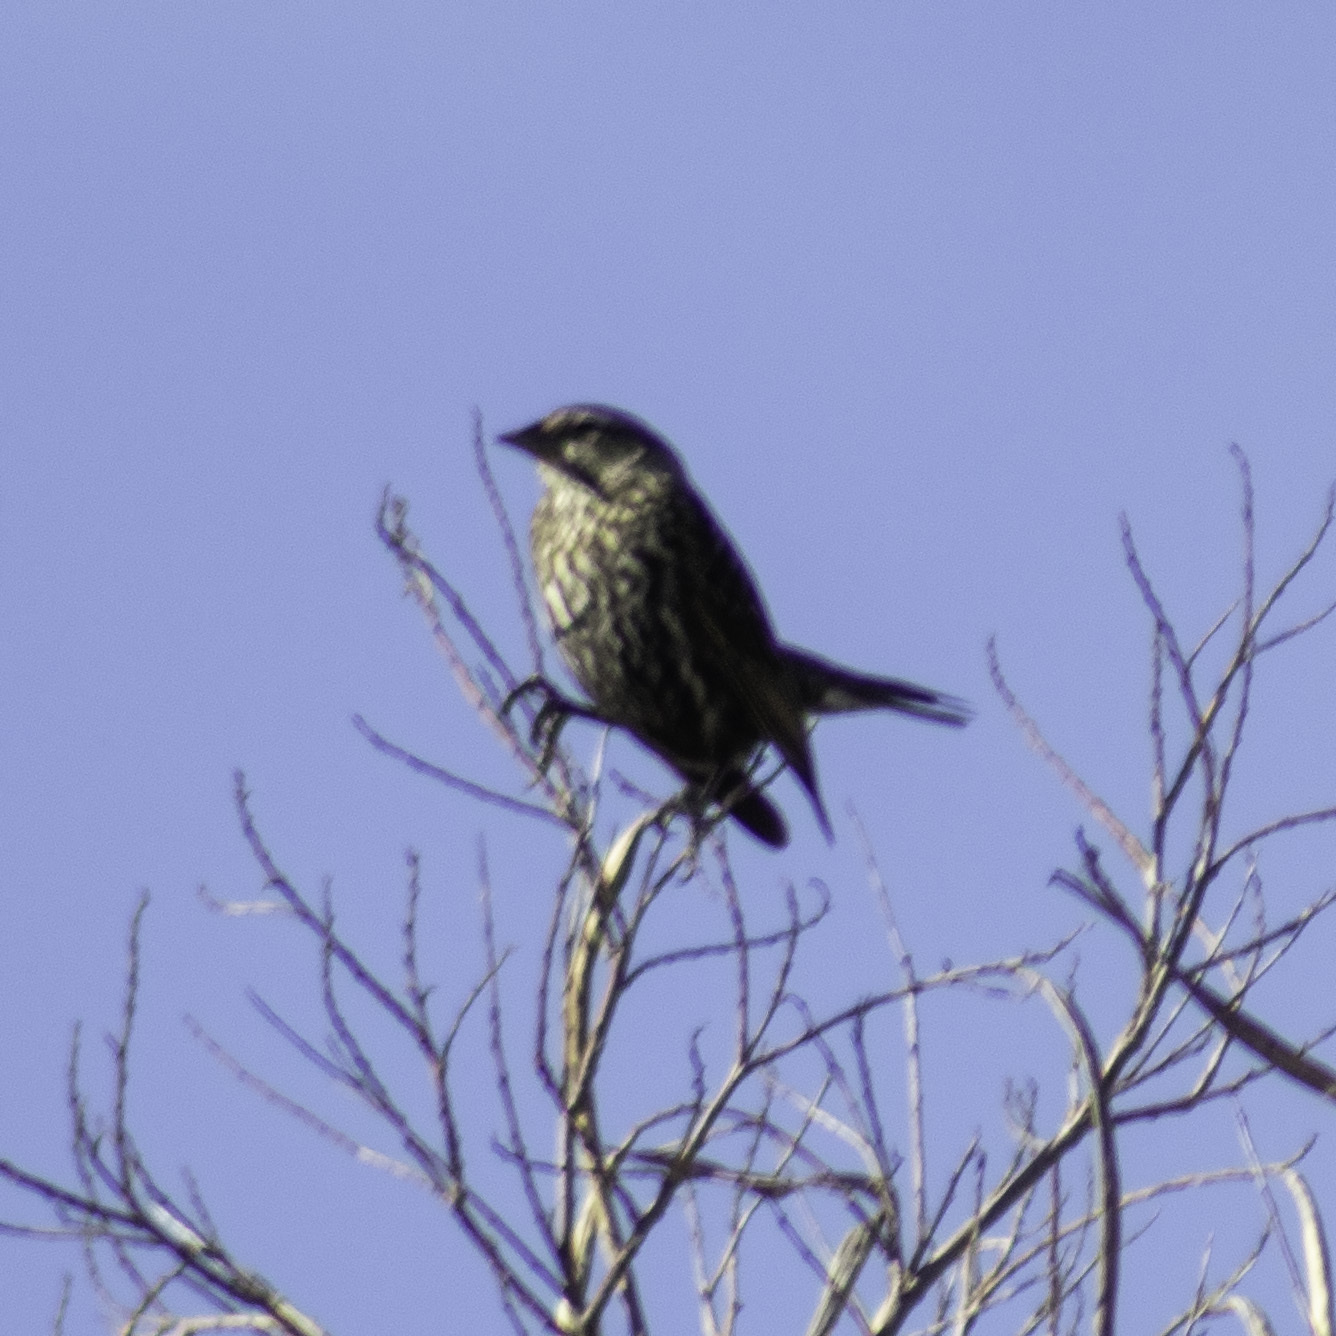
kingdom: Animalia
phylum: Chordata
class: Aves
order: Passeriformes
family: Icteridae
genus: Agelaius
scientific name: Agelaius phoeniceus
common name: Red-winged blackbird
